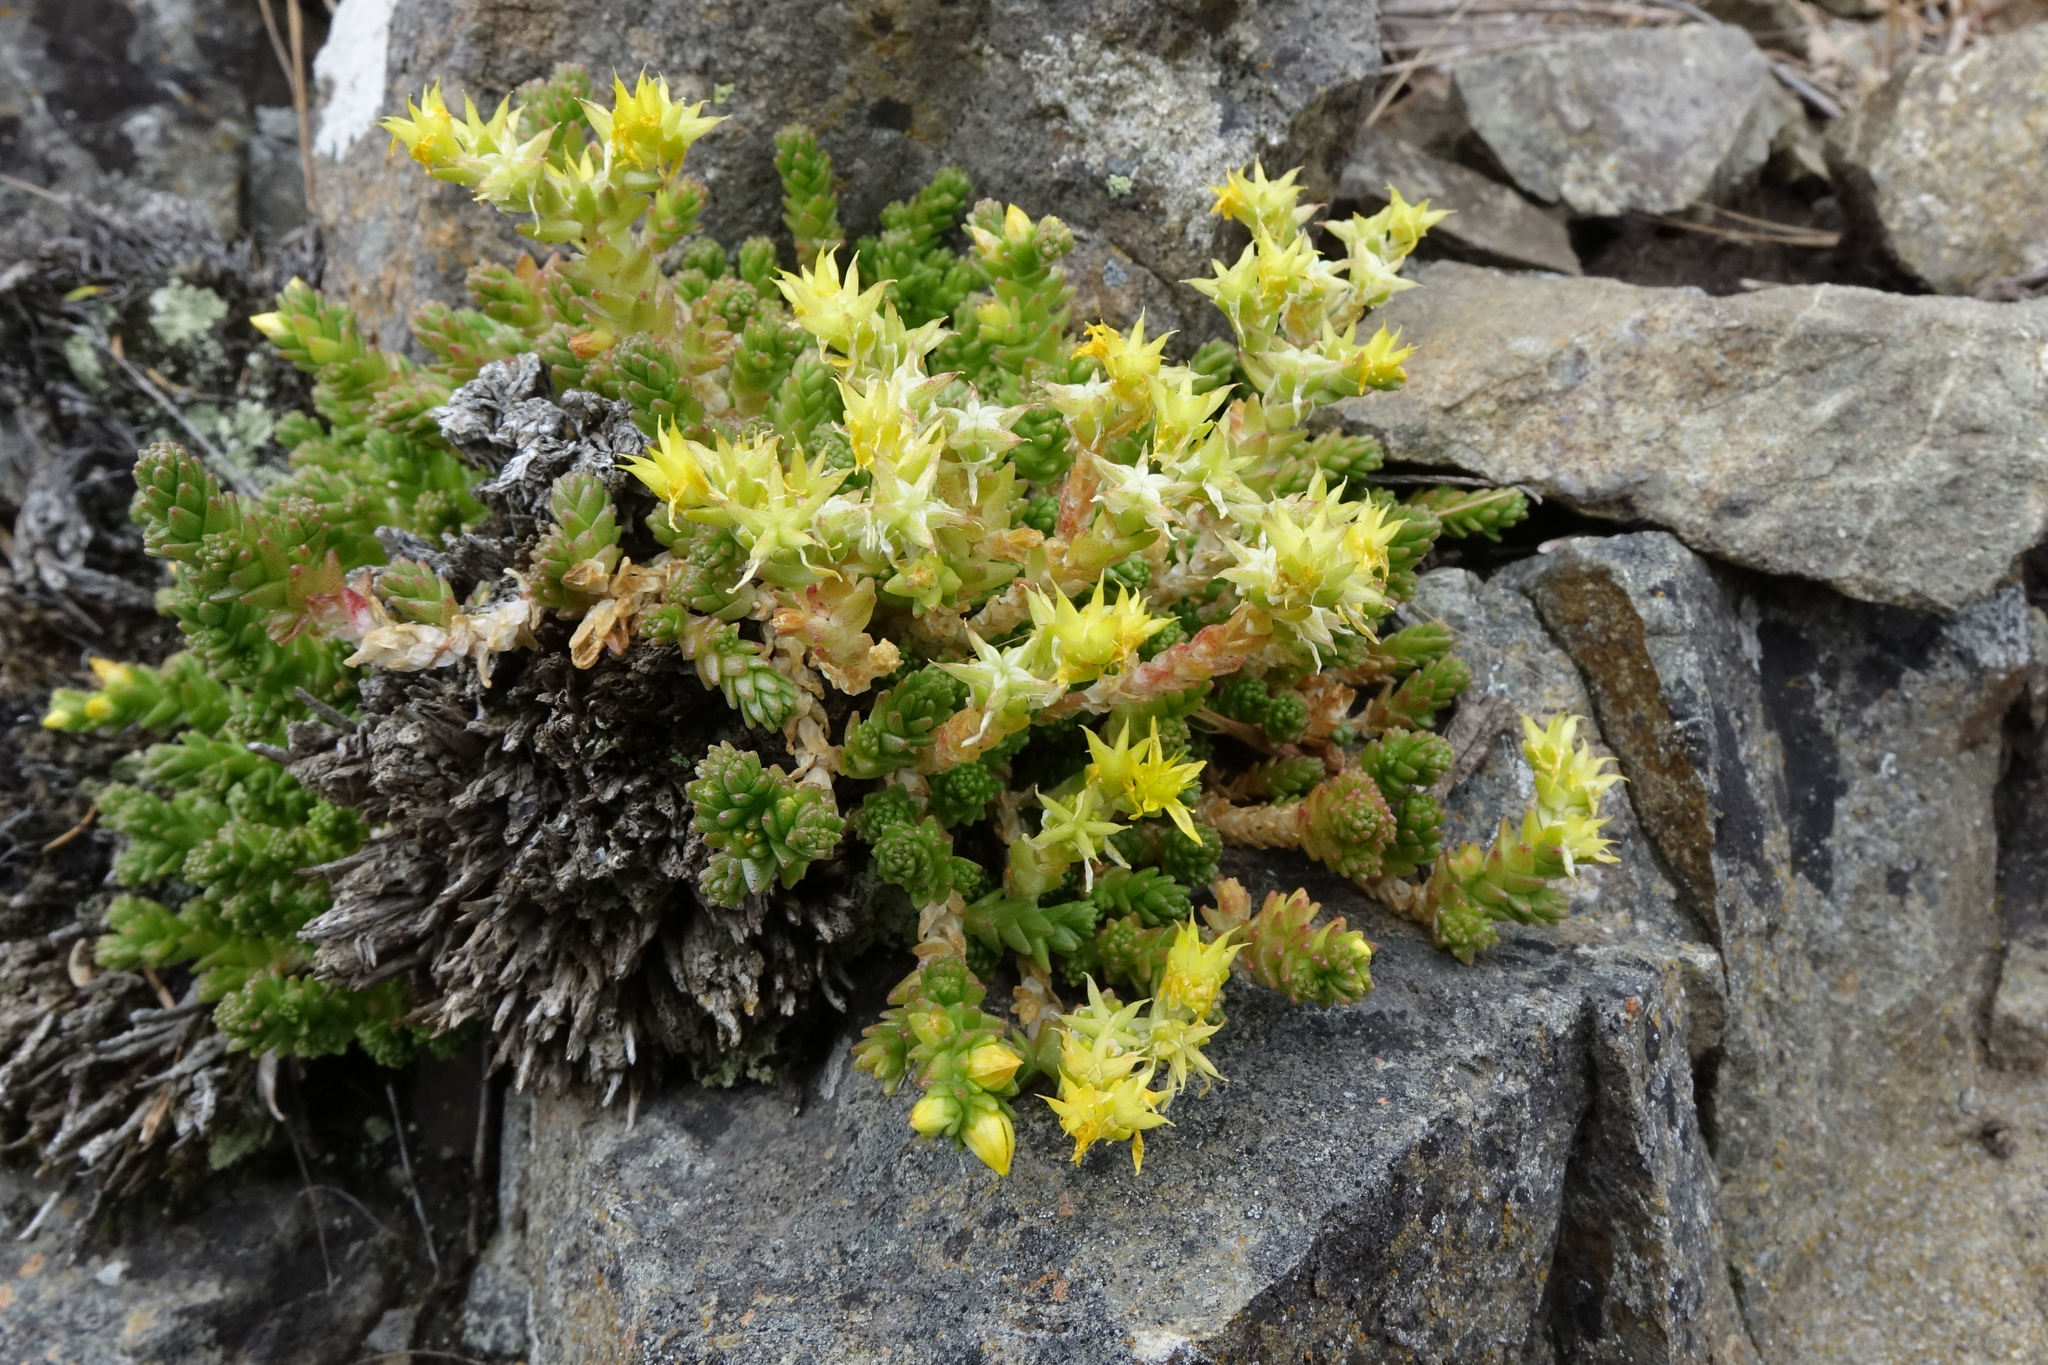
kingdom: Plantae
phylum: Tracheophyta
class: Magnoliopsida
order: Saxifragales
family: Crassulaceae
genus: Sedum
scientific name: Sedum acre
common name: Biting stonecrop
